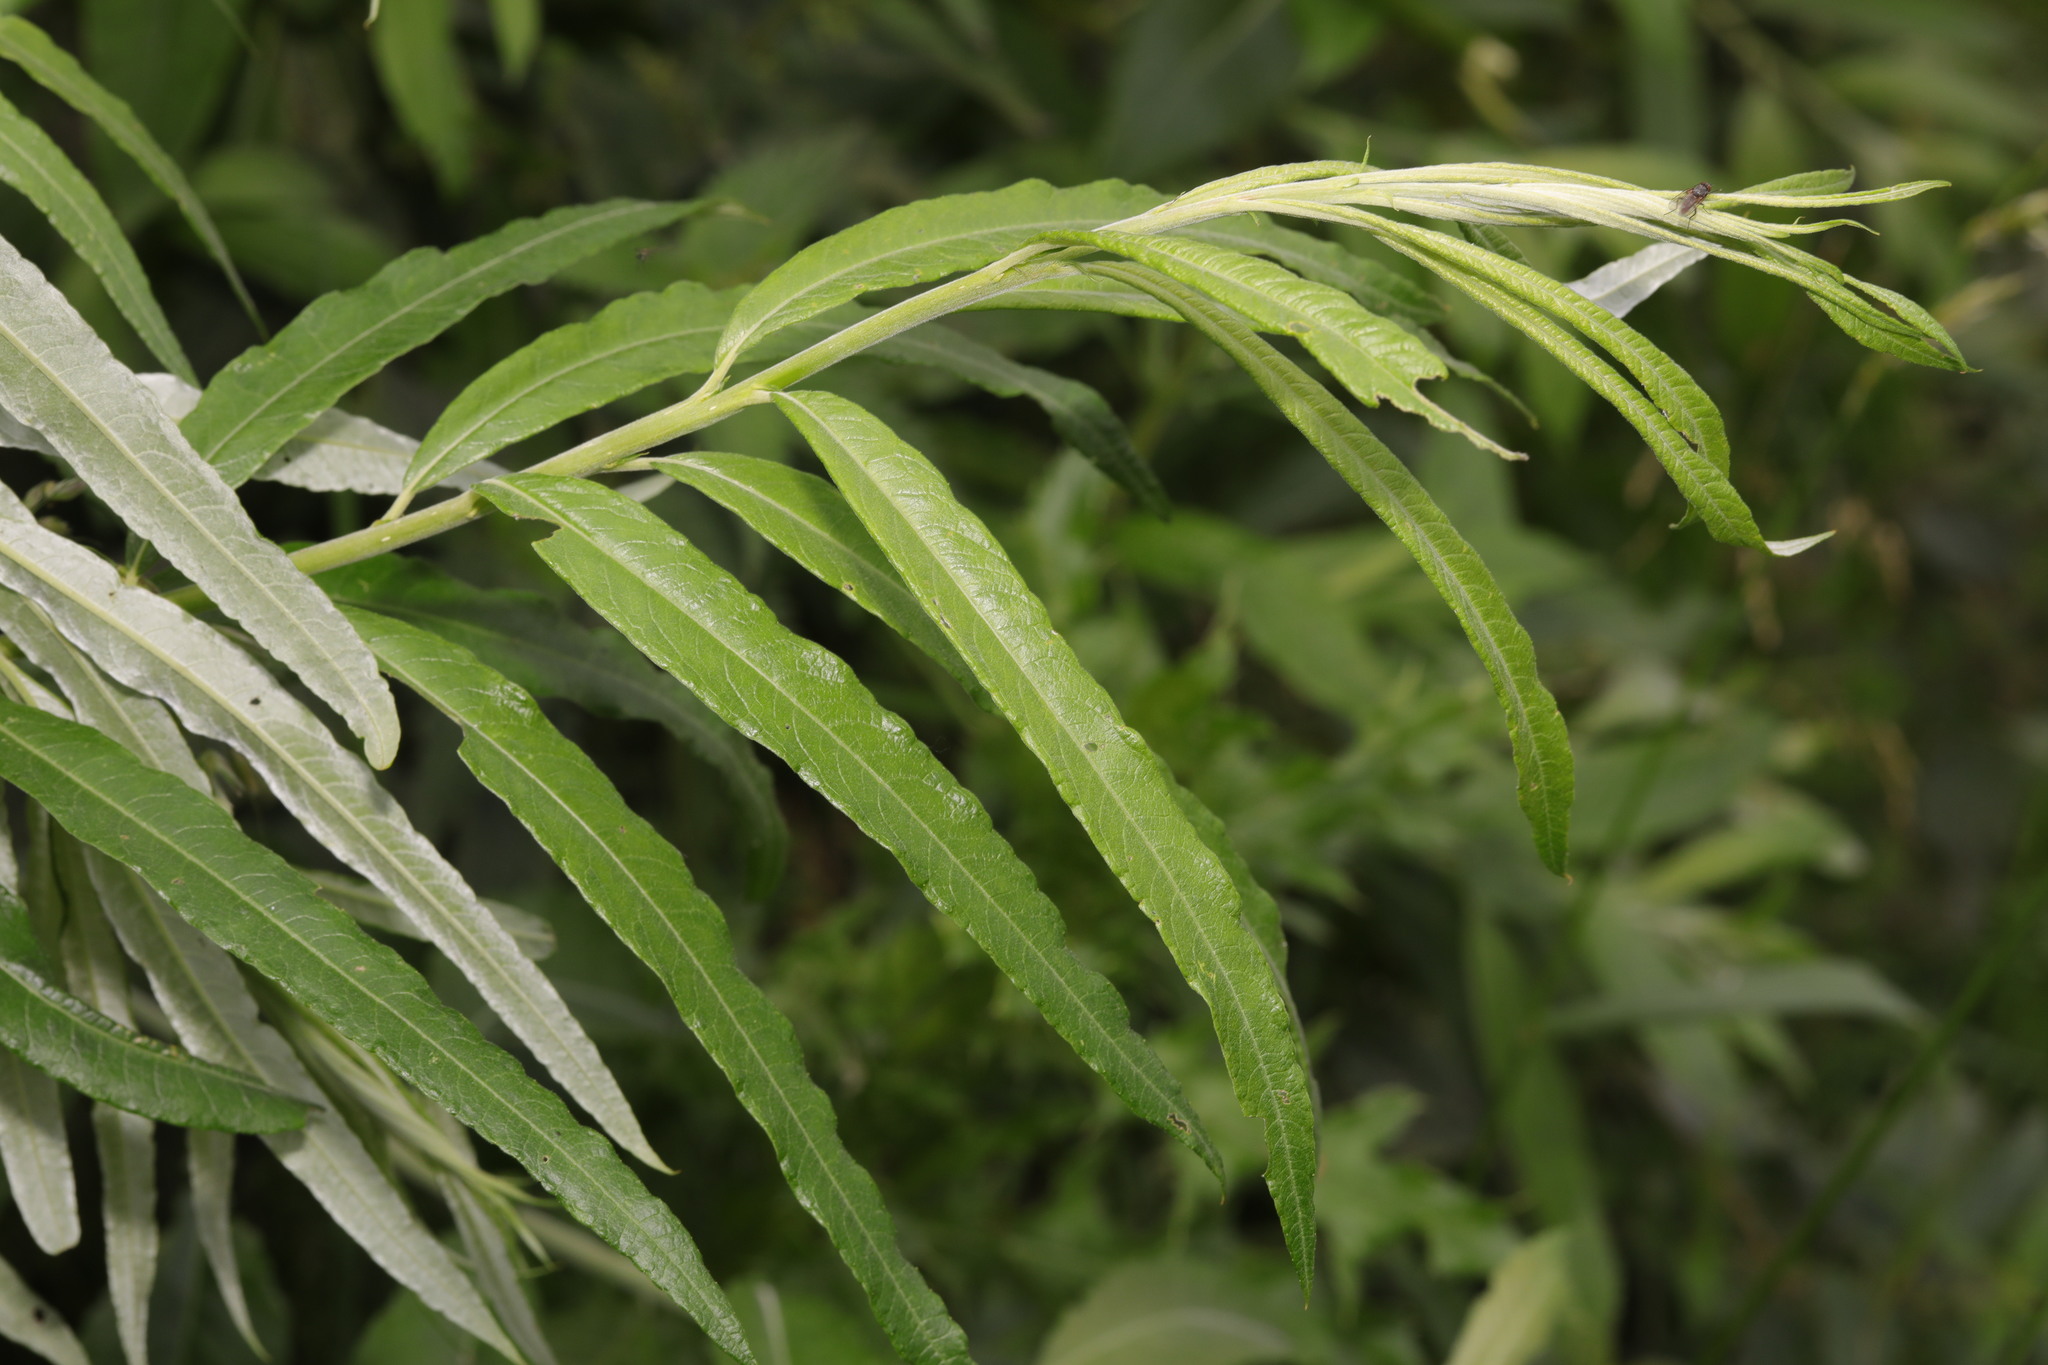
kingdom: Plantae
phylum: Tracheophyta
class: Magnoliopsida
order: Malpighiales
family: Salicaceae
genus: Salix
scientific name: Salix viminalis
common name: Osier
